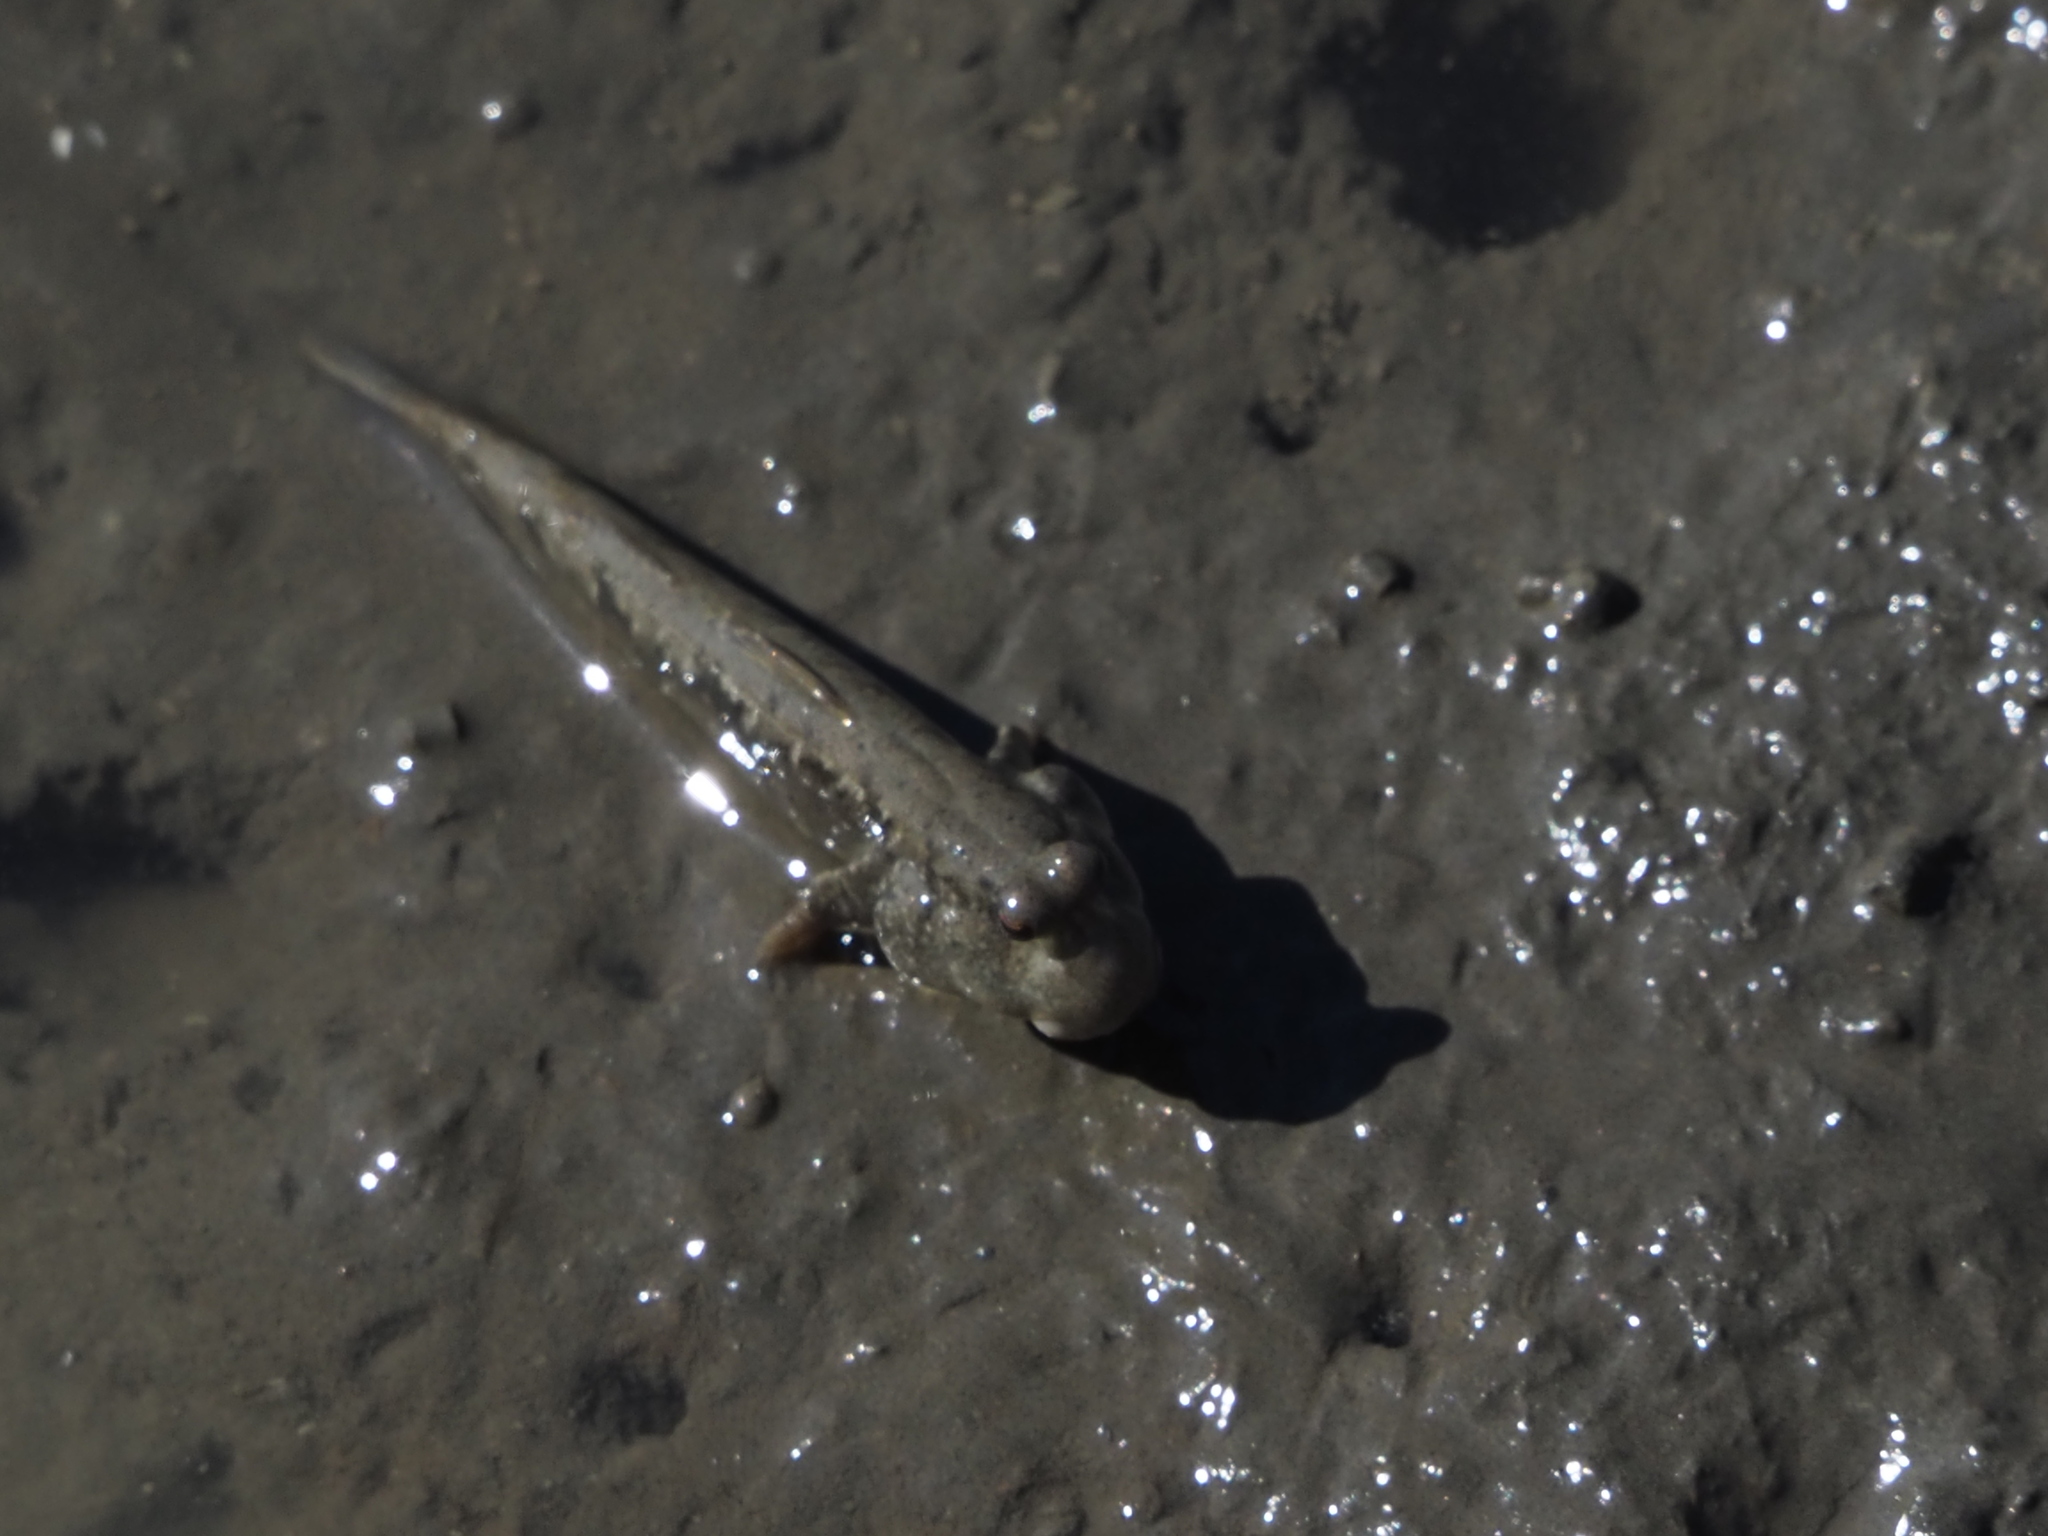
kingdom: Animalia
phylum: Chordata
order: Perciformes
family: Gobiidae
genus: Periophthalmus
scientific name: Periophthalmus modestus
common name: Black goby
